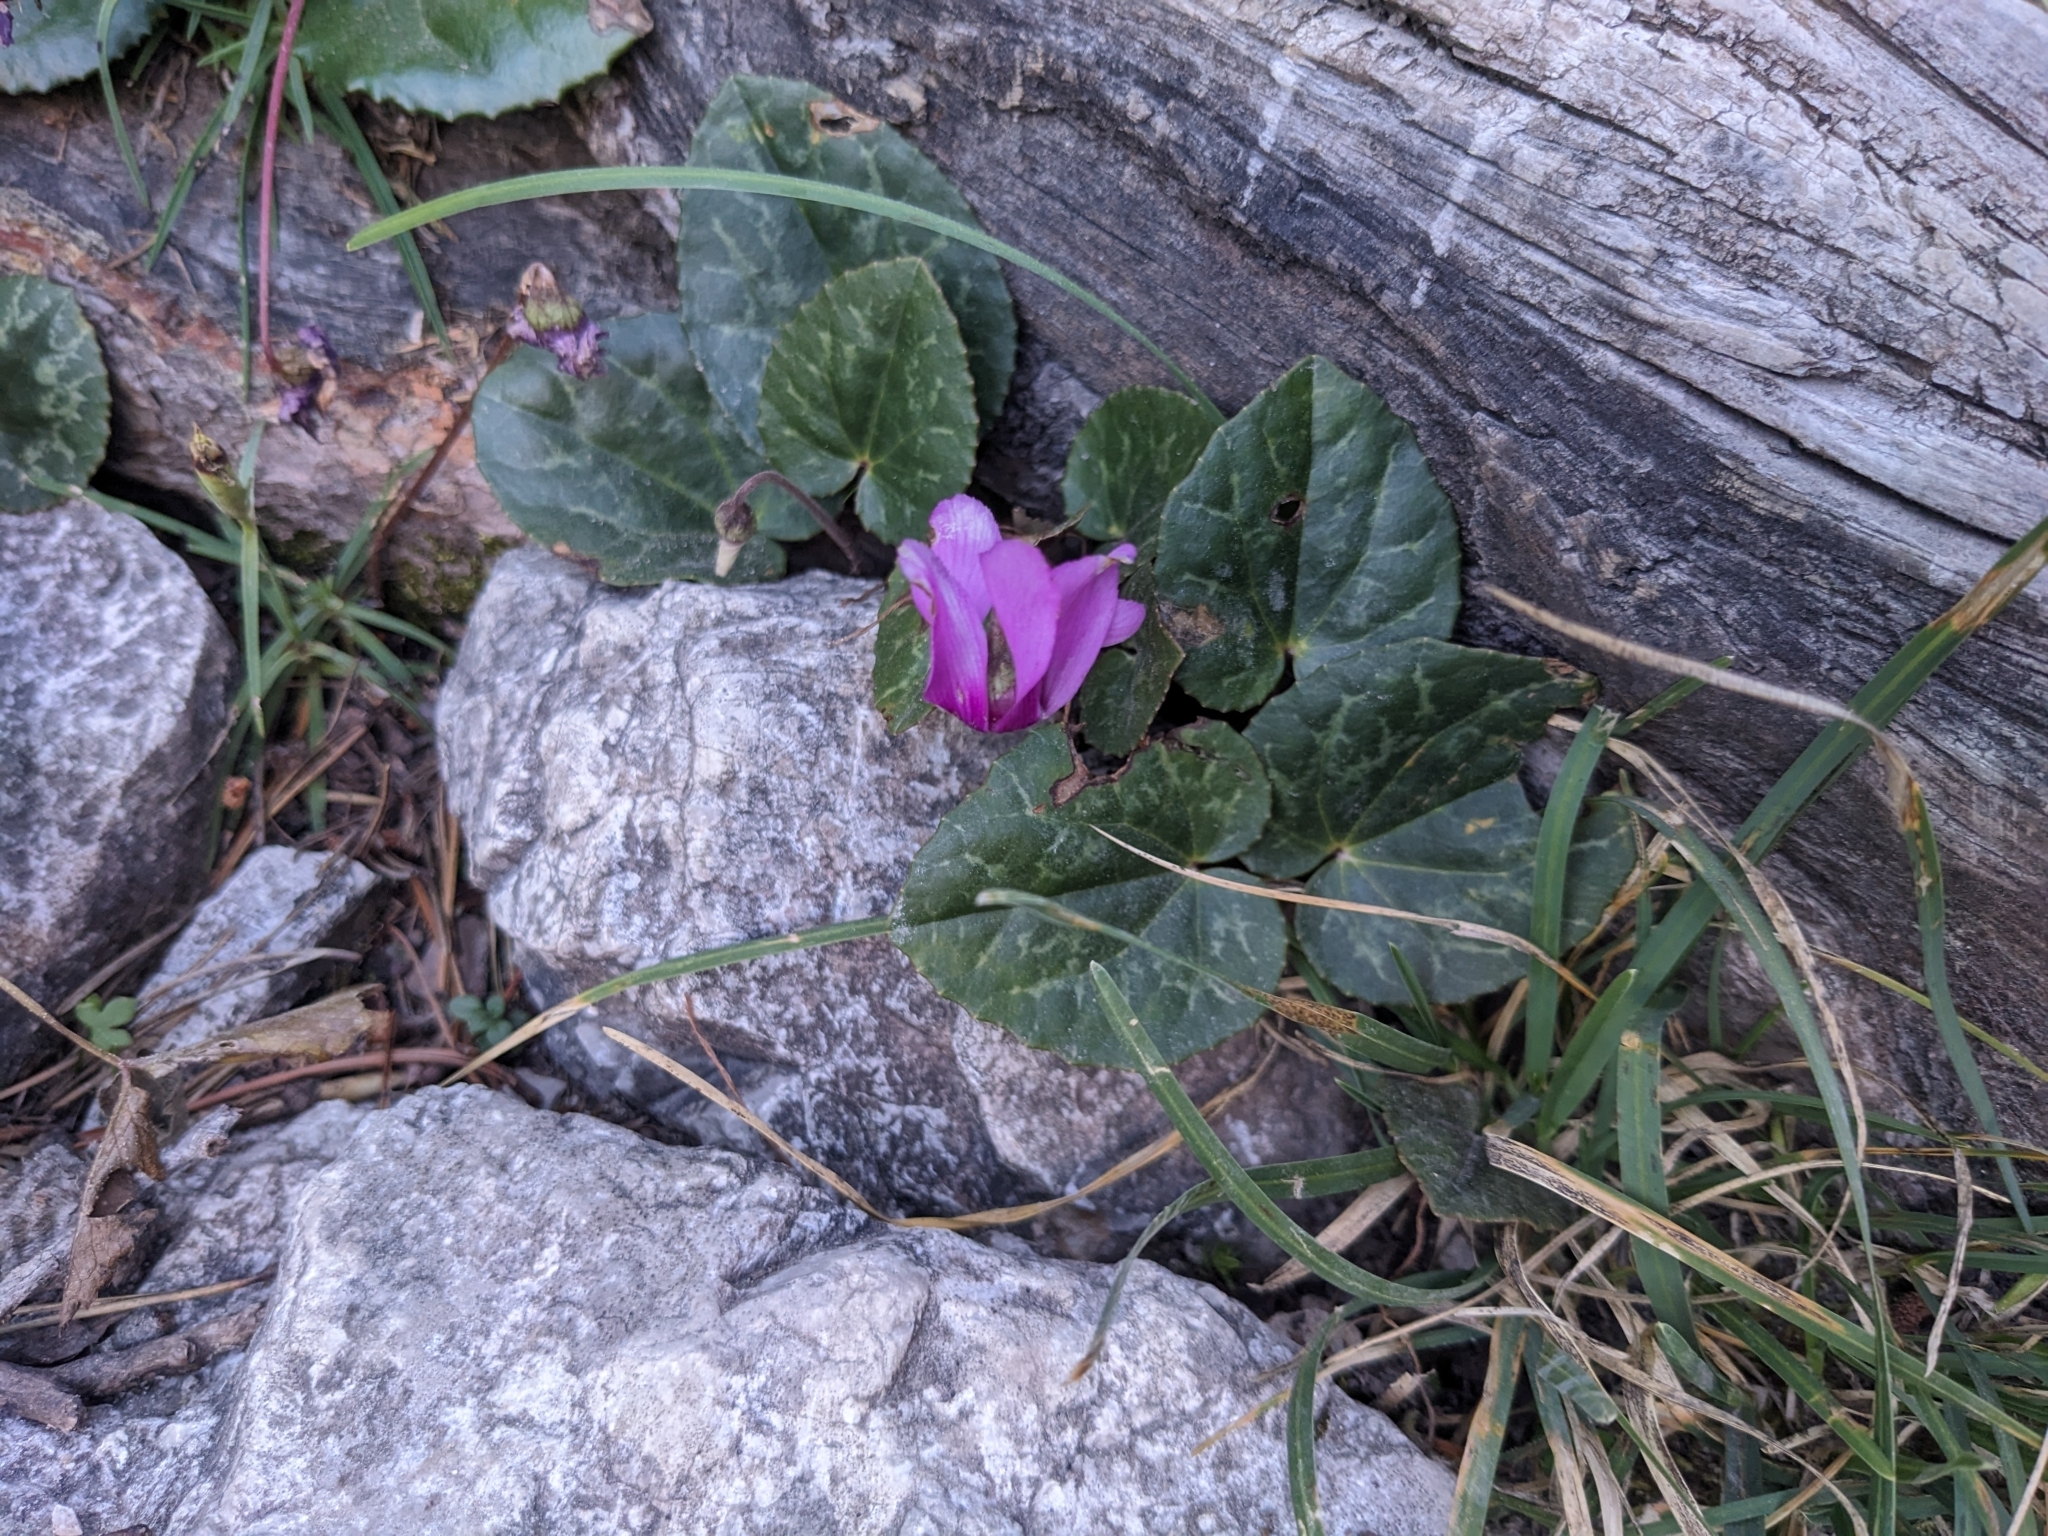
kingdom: Plantae
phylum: Tracheophyta
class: Magnoliopsida
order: Ericales
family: Primulaceae
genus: Cyclamen
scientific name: Cyclamen purpurascens
